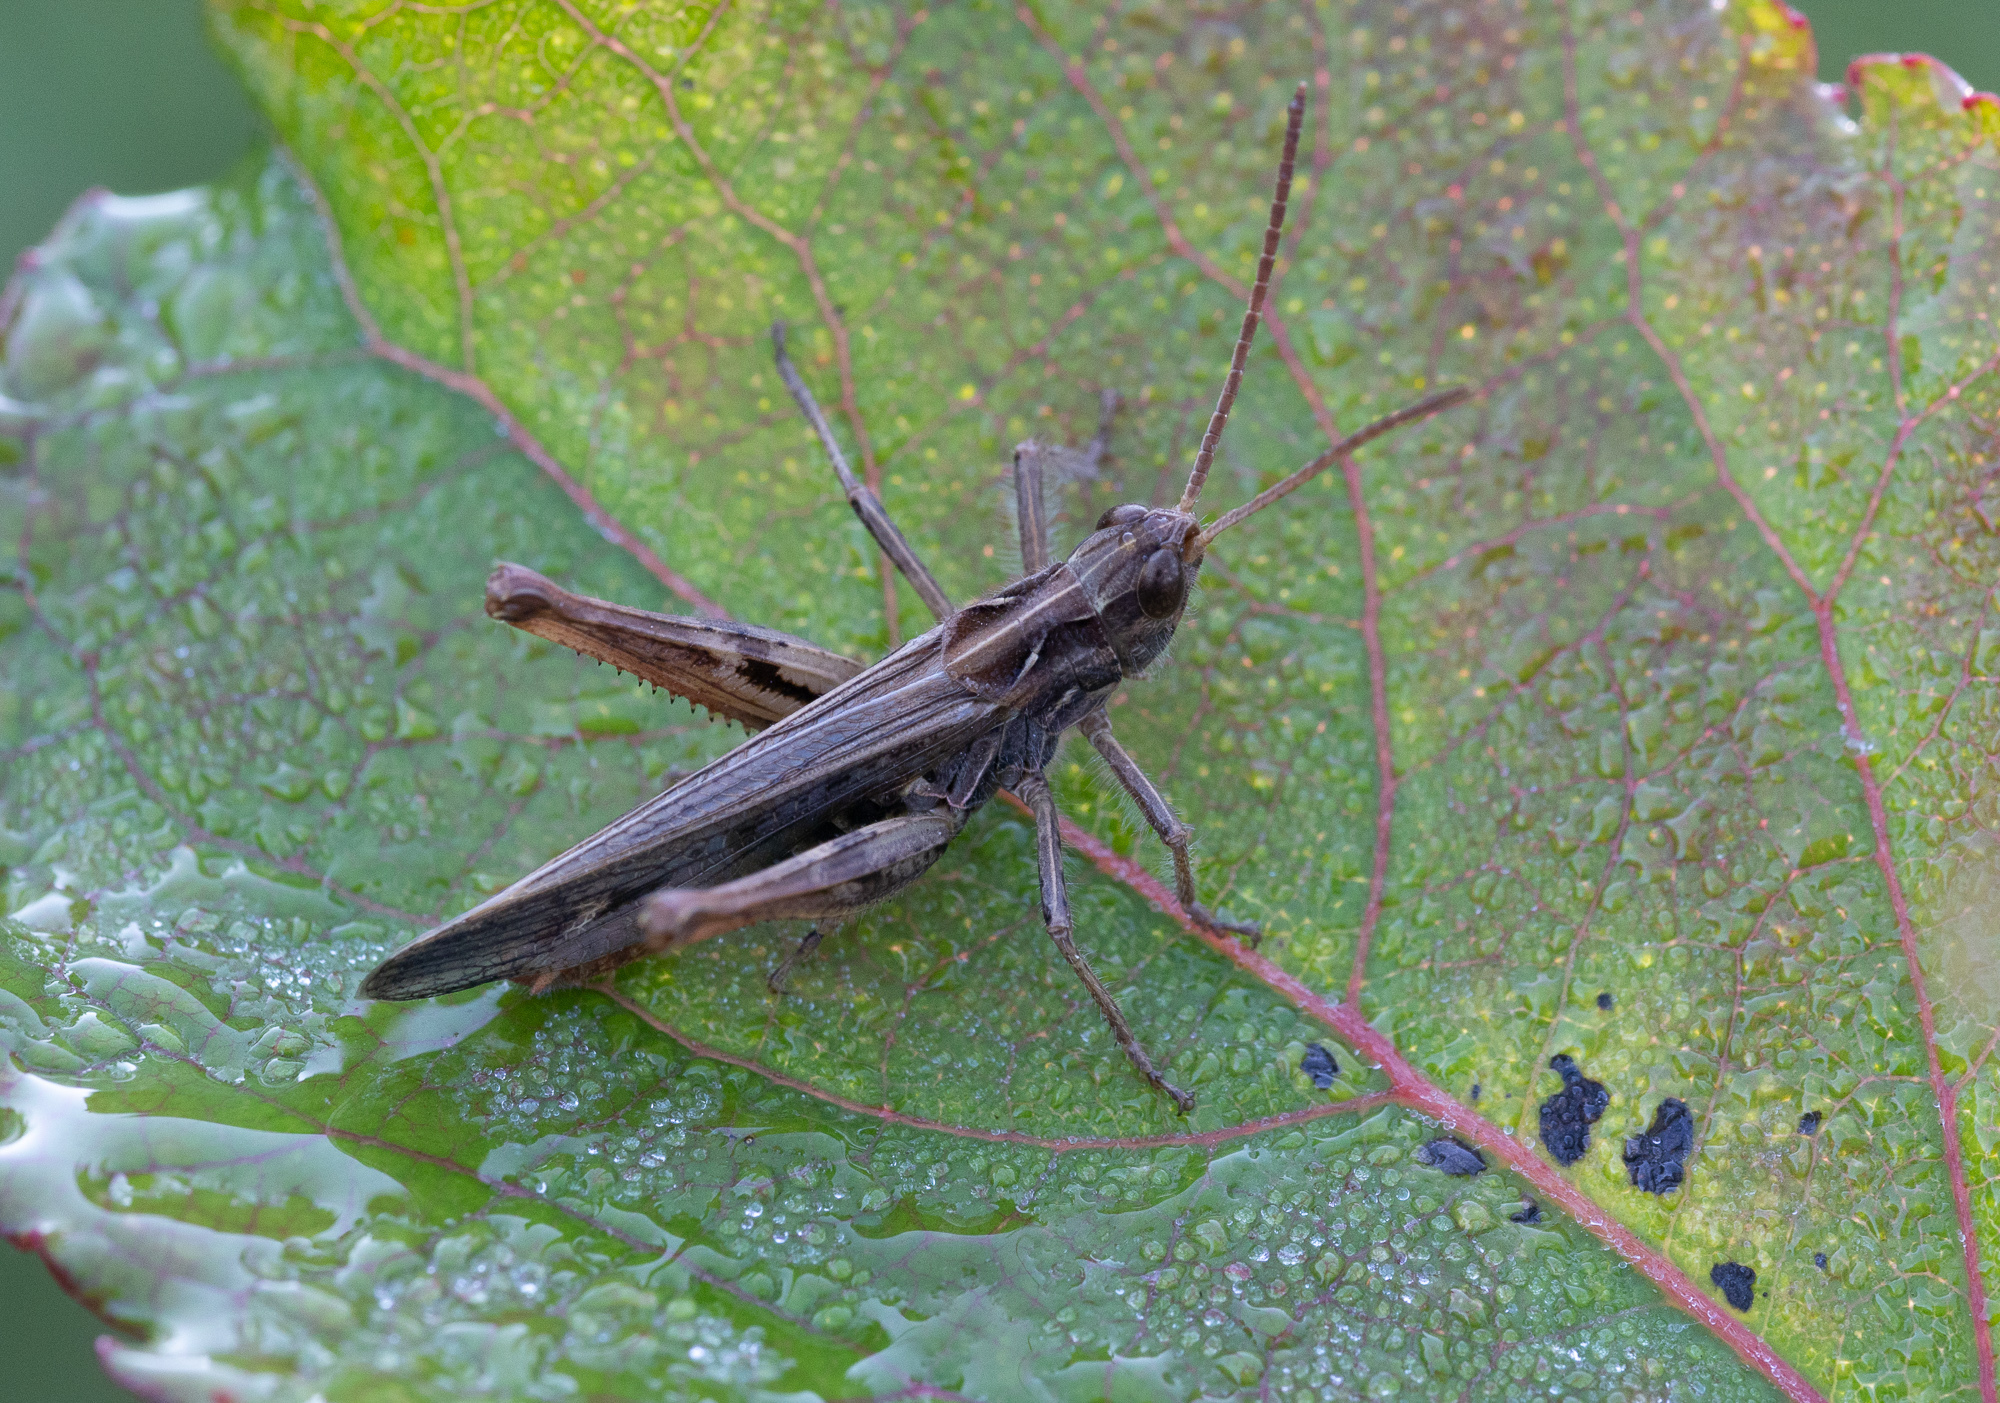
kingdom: Animalia
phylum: Arthropoda
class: Insecta
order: Orthoptera
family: Acrididae
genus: Chorthippus
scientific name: Chorthippus biguttulus
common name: Bow-winged grasshopper
